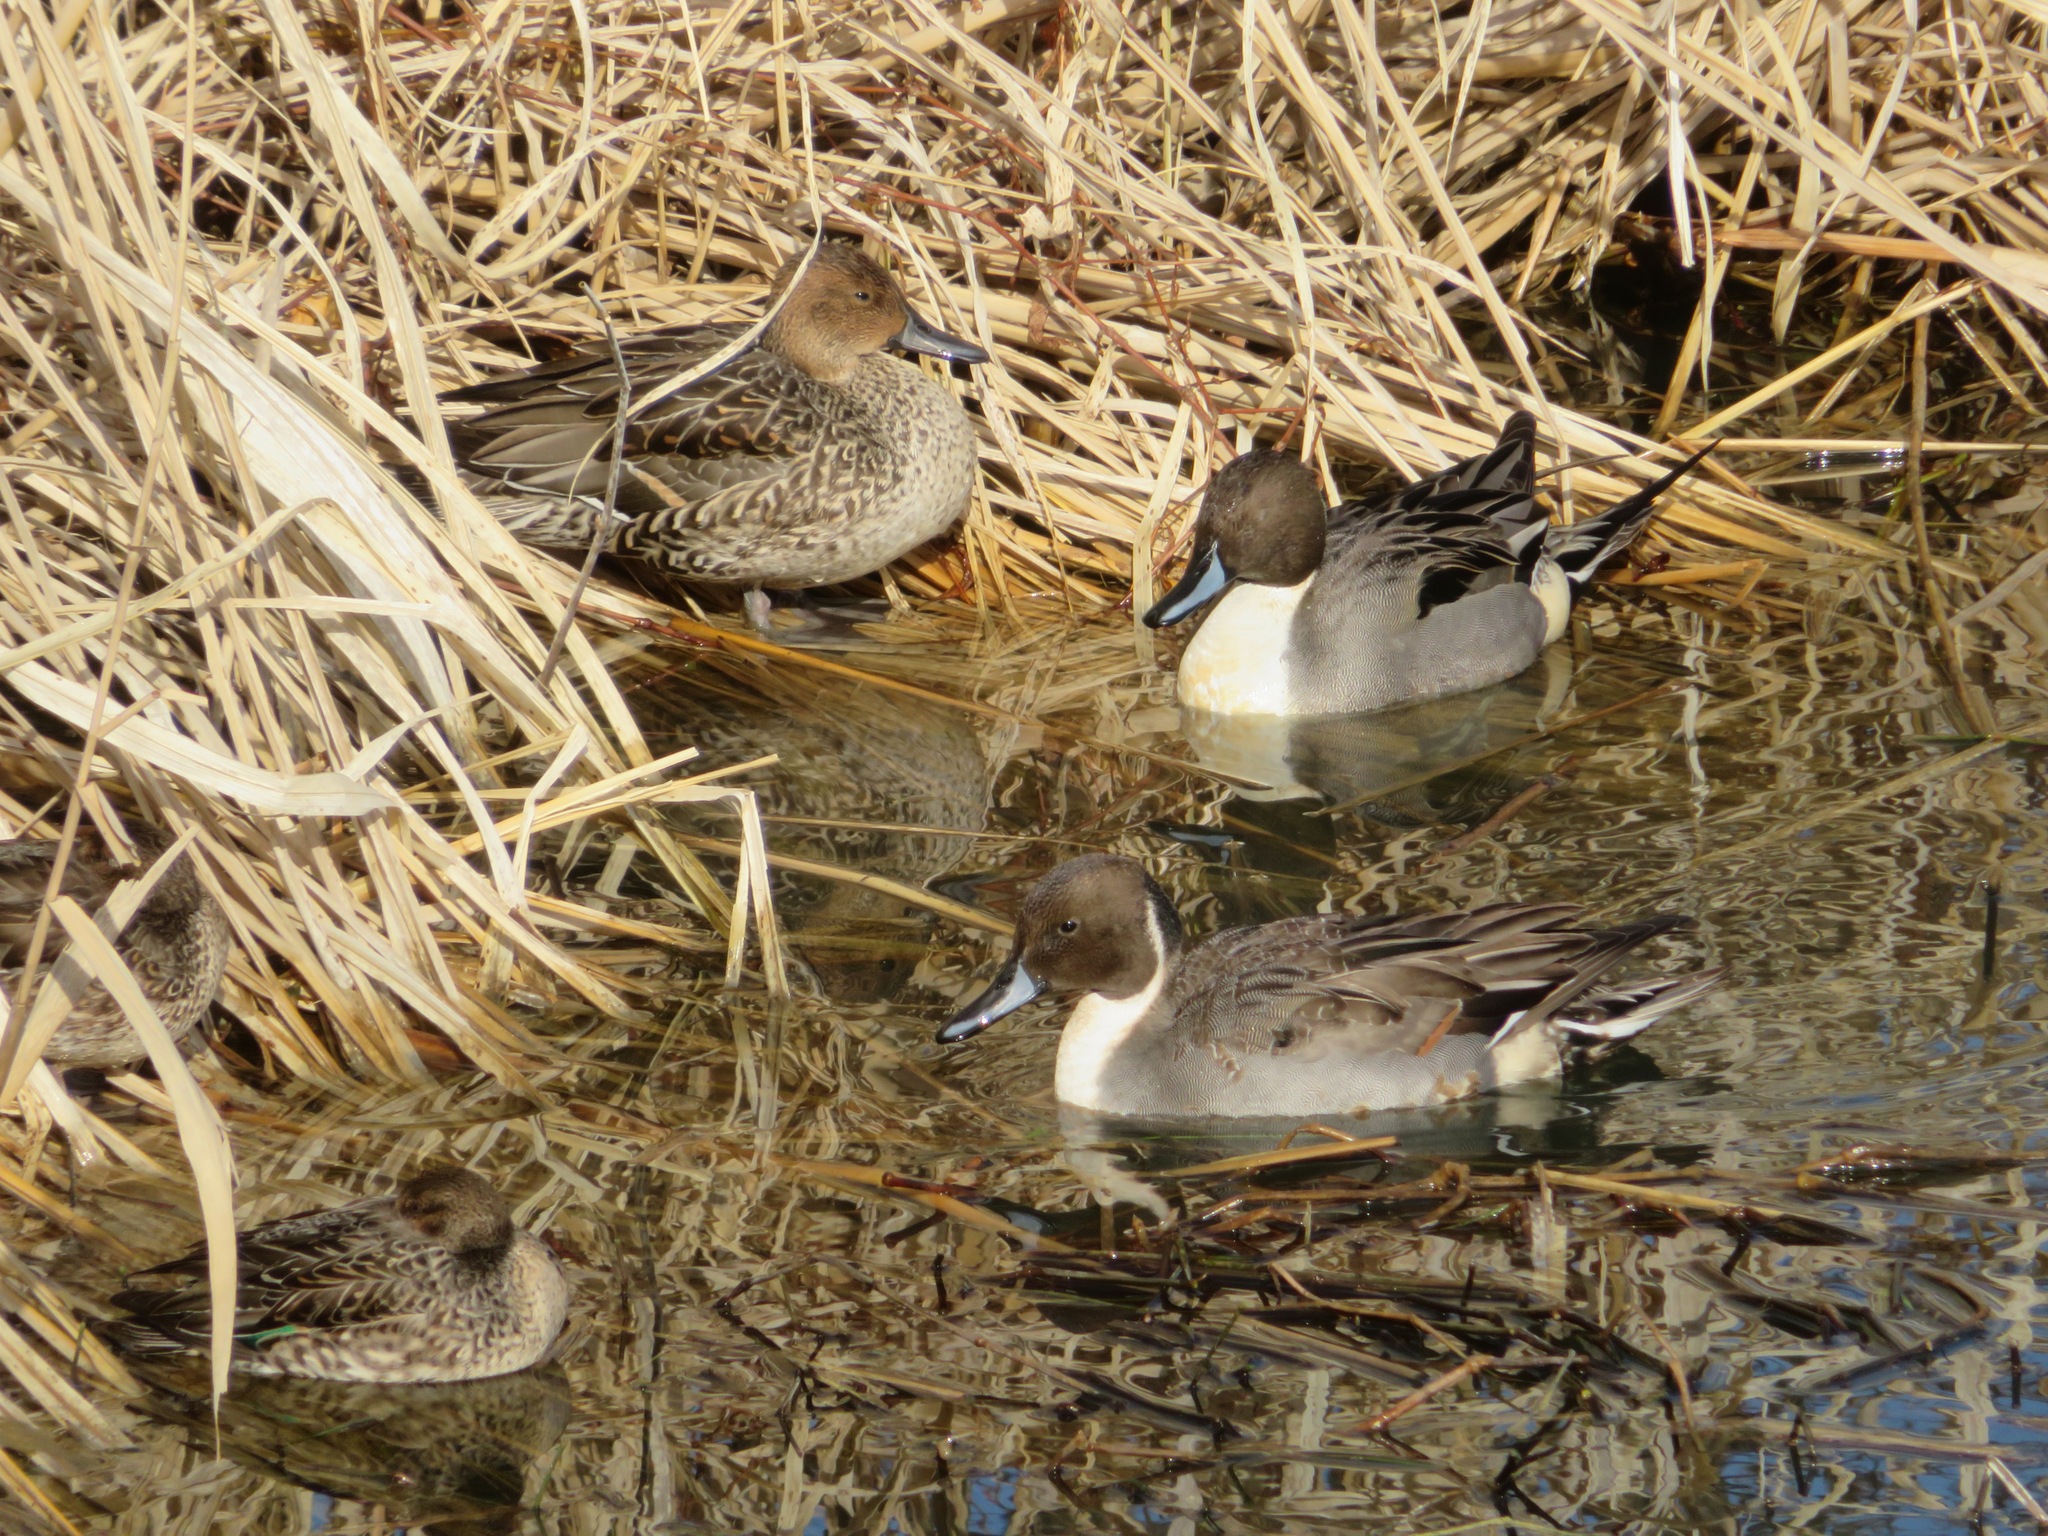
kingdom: Animalia
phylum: Chordata
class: Aves
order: Anseriformes
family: Anatidae
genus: Anas
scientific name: Anas acuta
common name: Northern pintail
